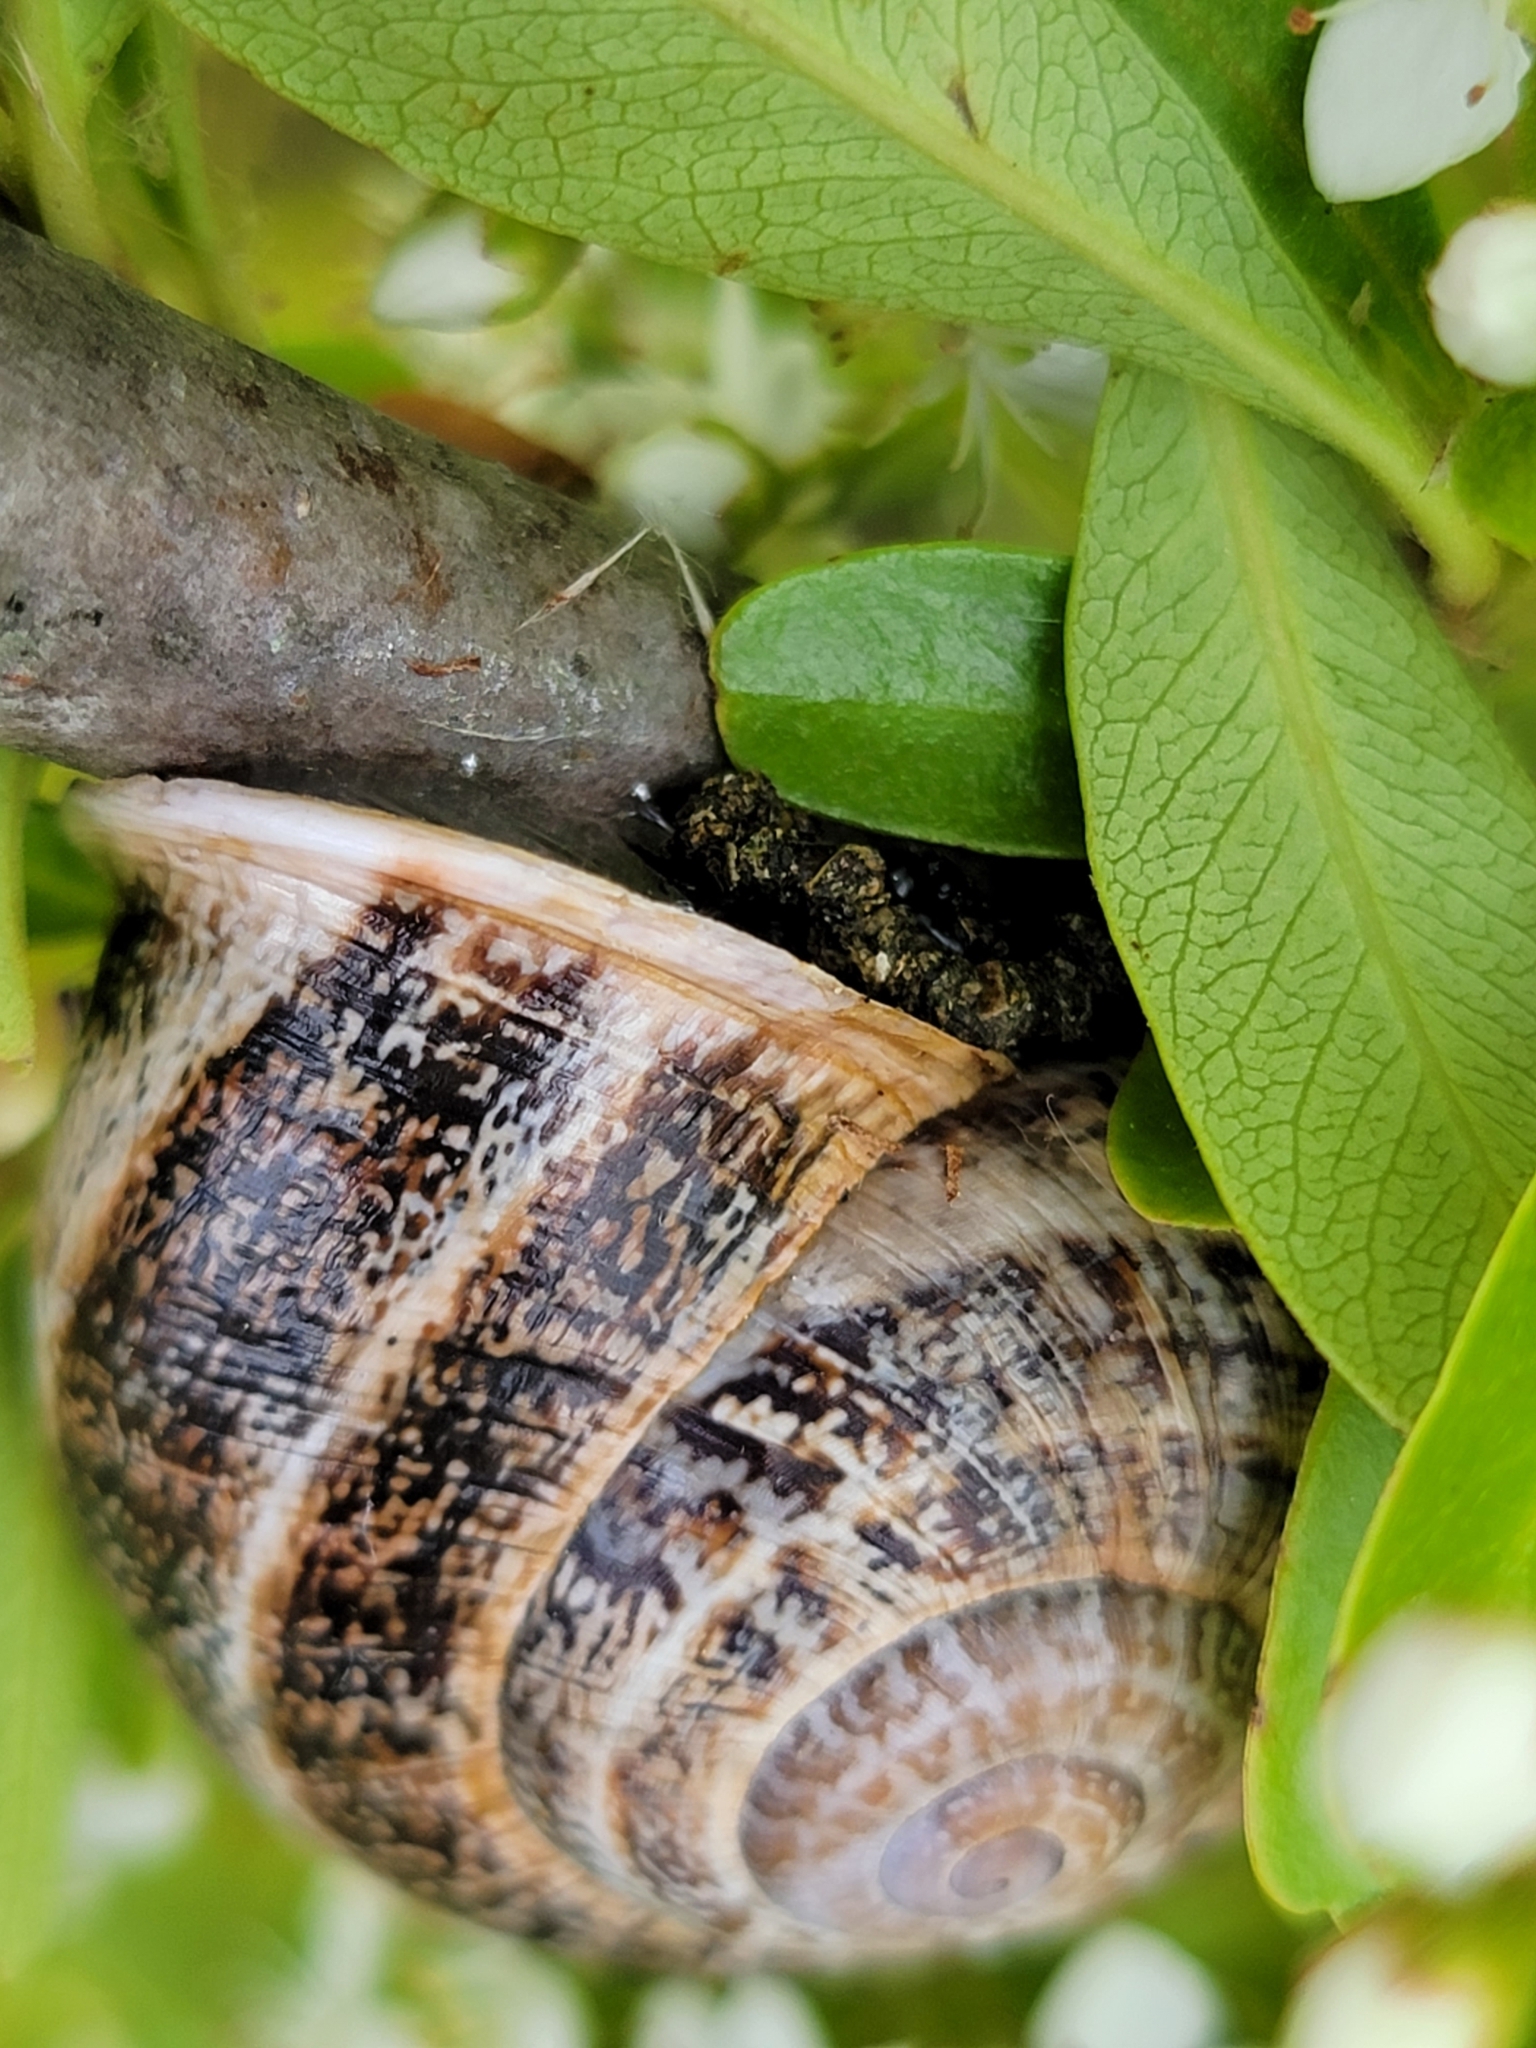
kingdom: Animalia
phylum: Mollusca
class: Gastropoda
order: Stylommatophora
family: Helicidae
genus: Otala
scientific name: Otala lactea
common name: Milk snail
